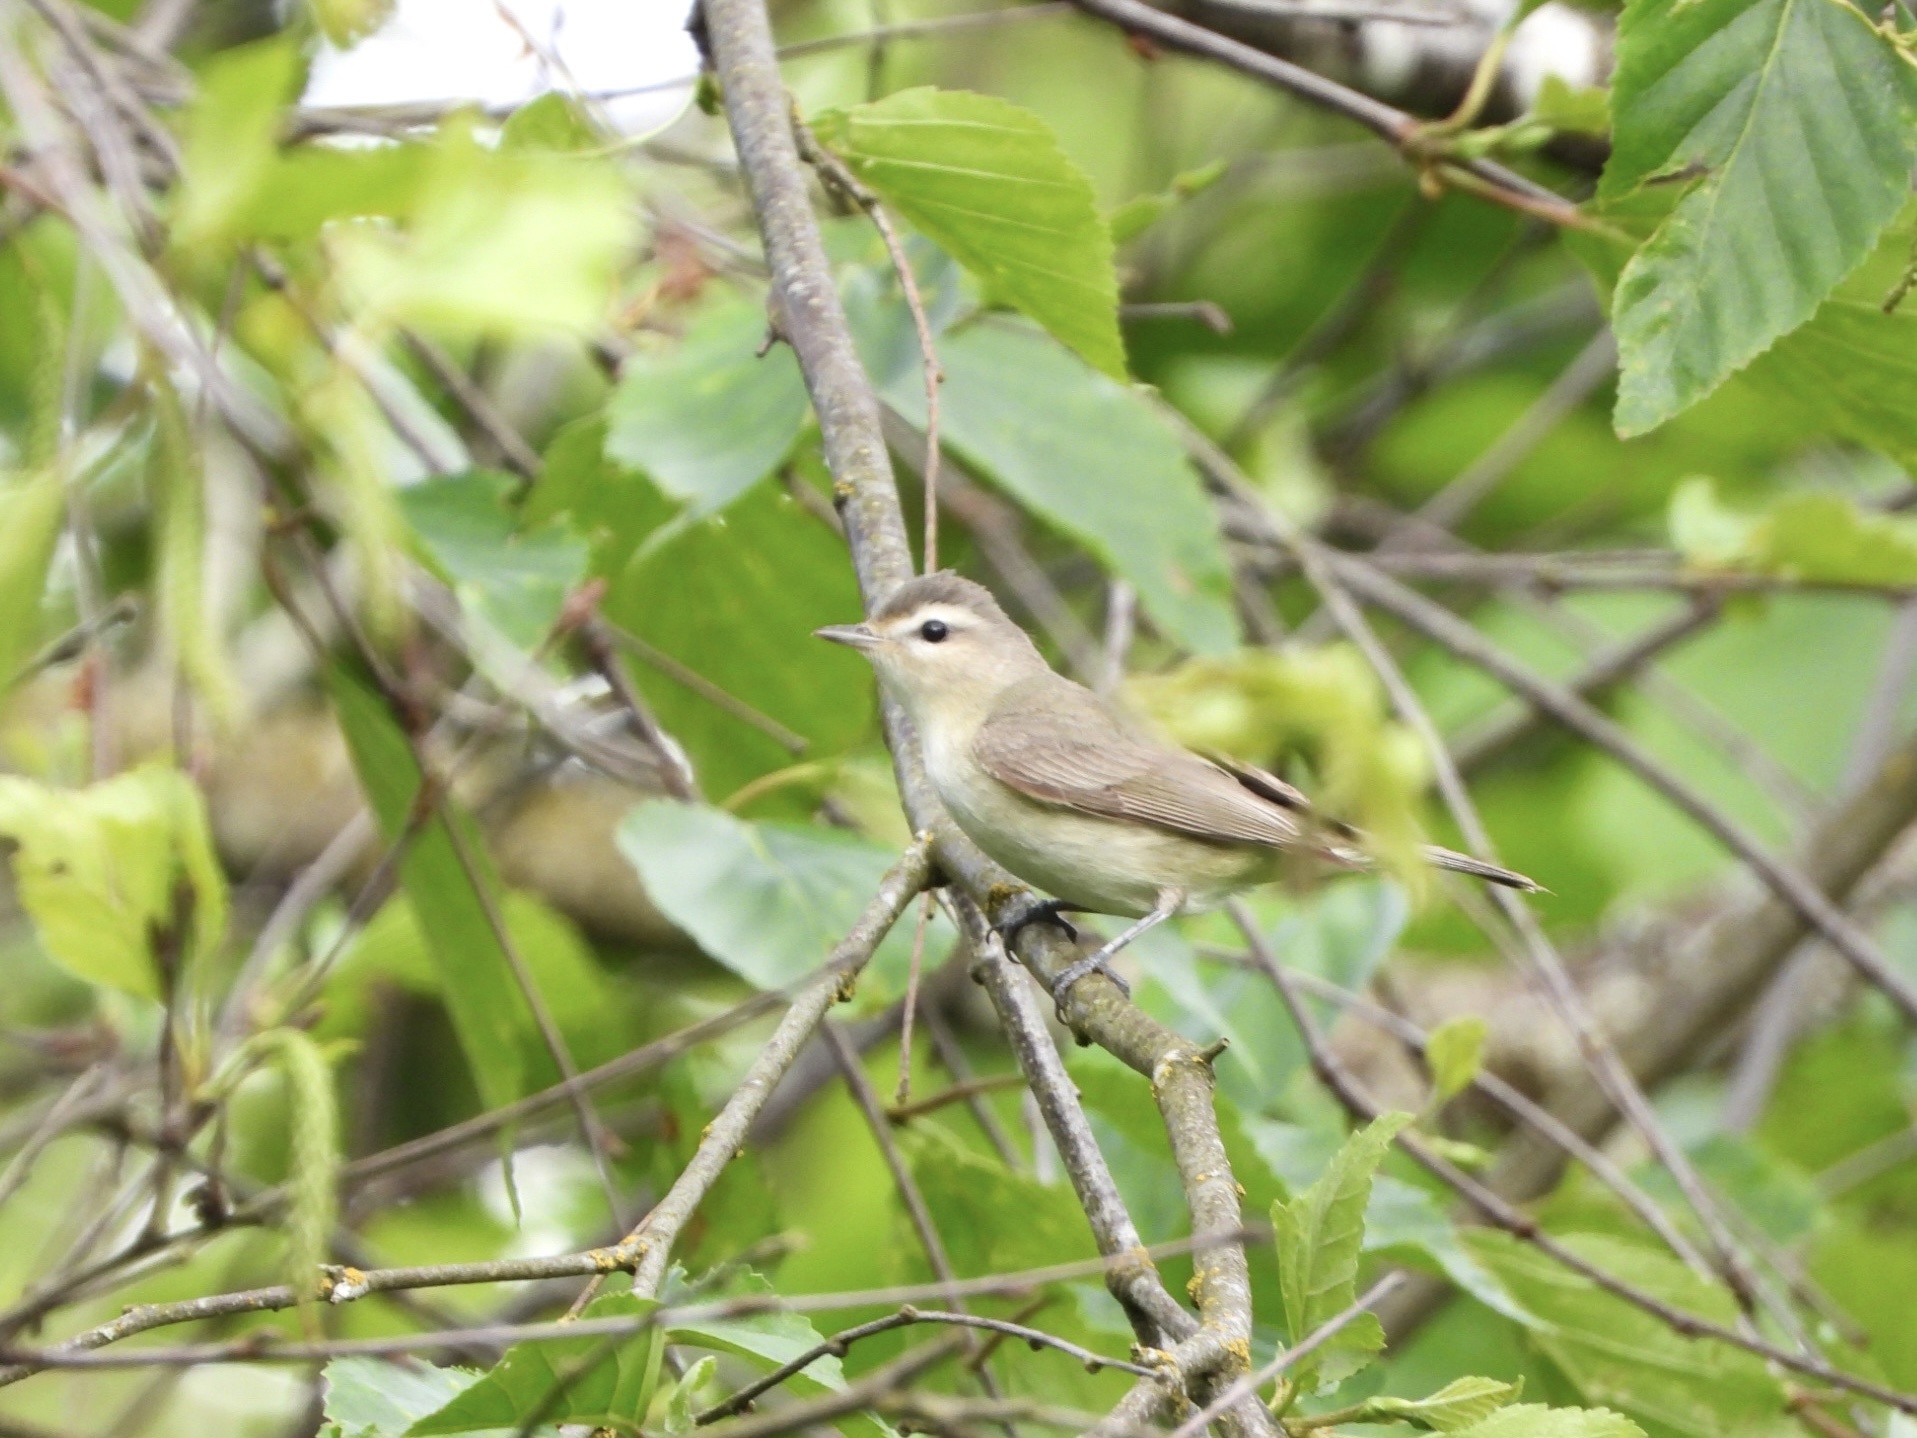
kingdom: Animalia
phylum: Chordata
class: Aves
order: Passeriformes
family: Vireonidae
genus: Vireo
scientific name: Vireo gilvus
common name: Warbling vireo
